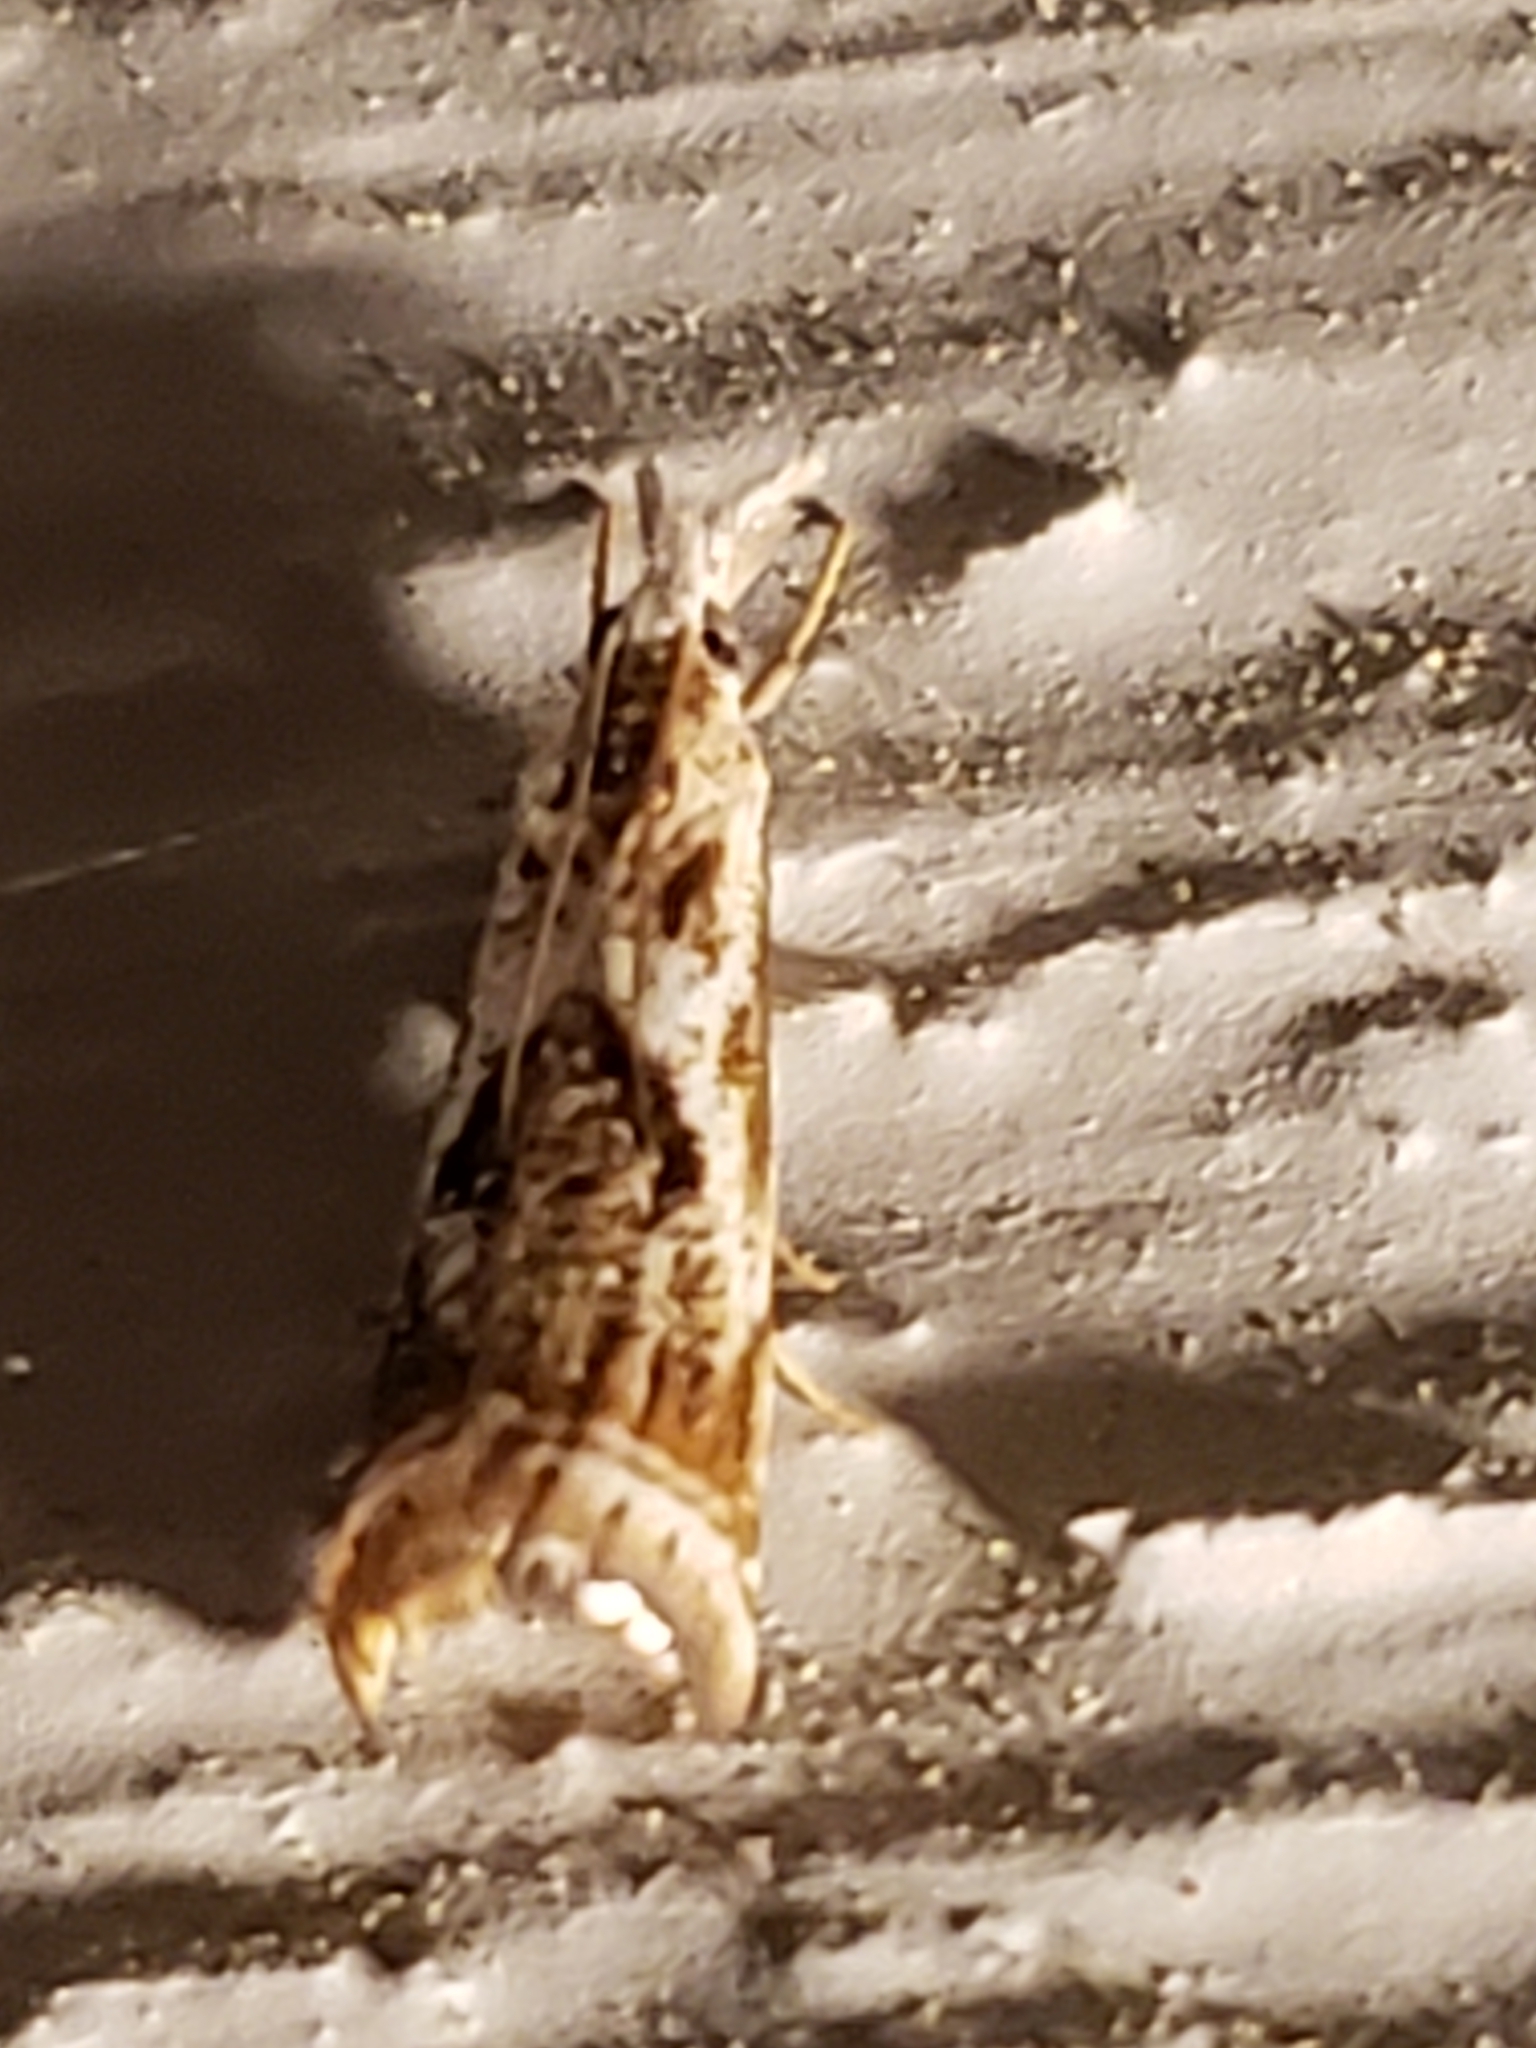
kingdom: Animalia
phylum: Arthropoda
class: Insecta
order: Lepidoptera
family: Crambidae
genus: Microcrambus
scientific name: Microcrambus elegans
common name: Elegant grass-veneer
